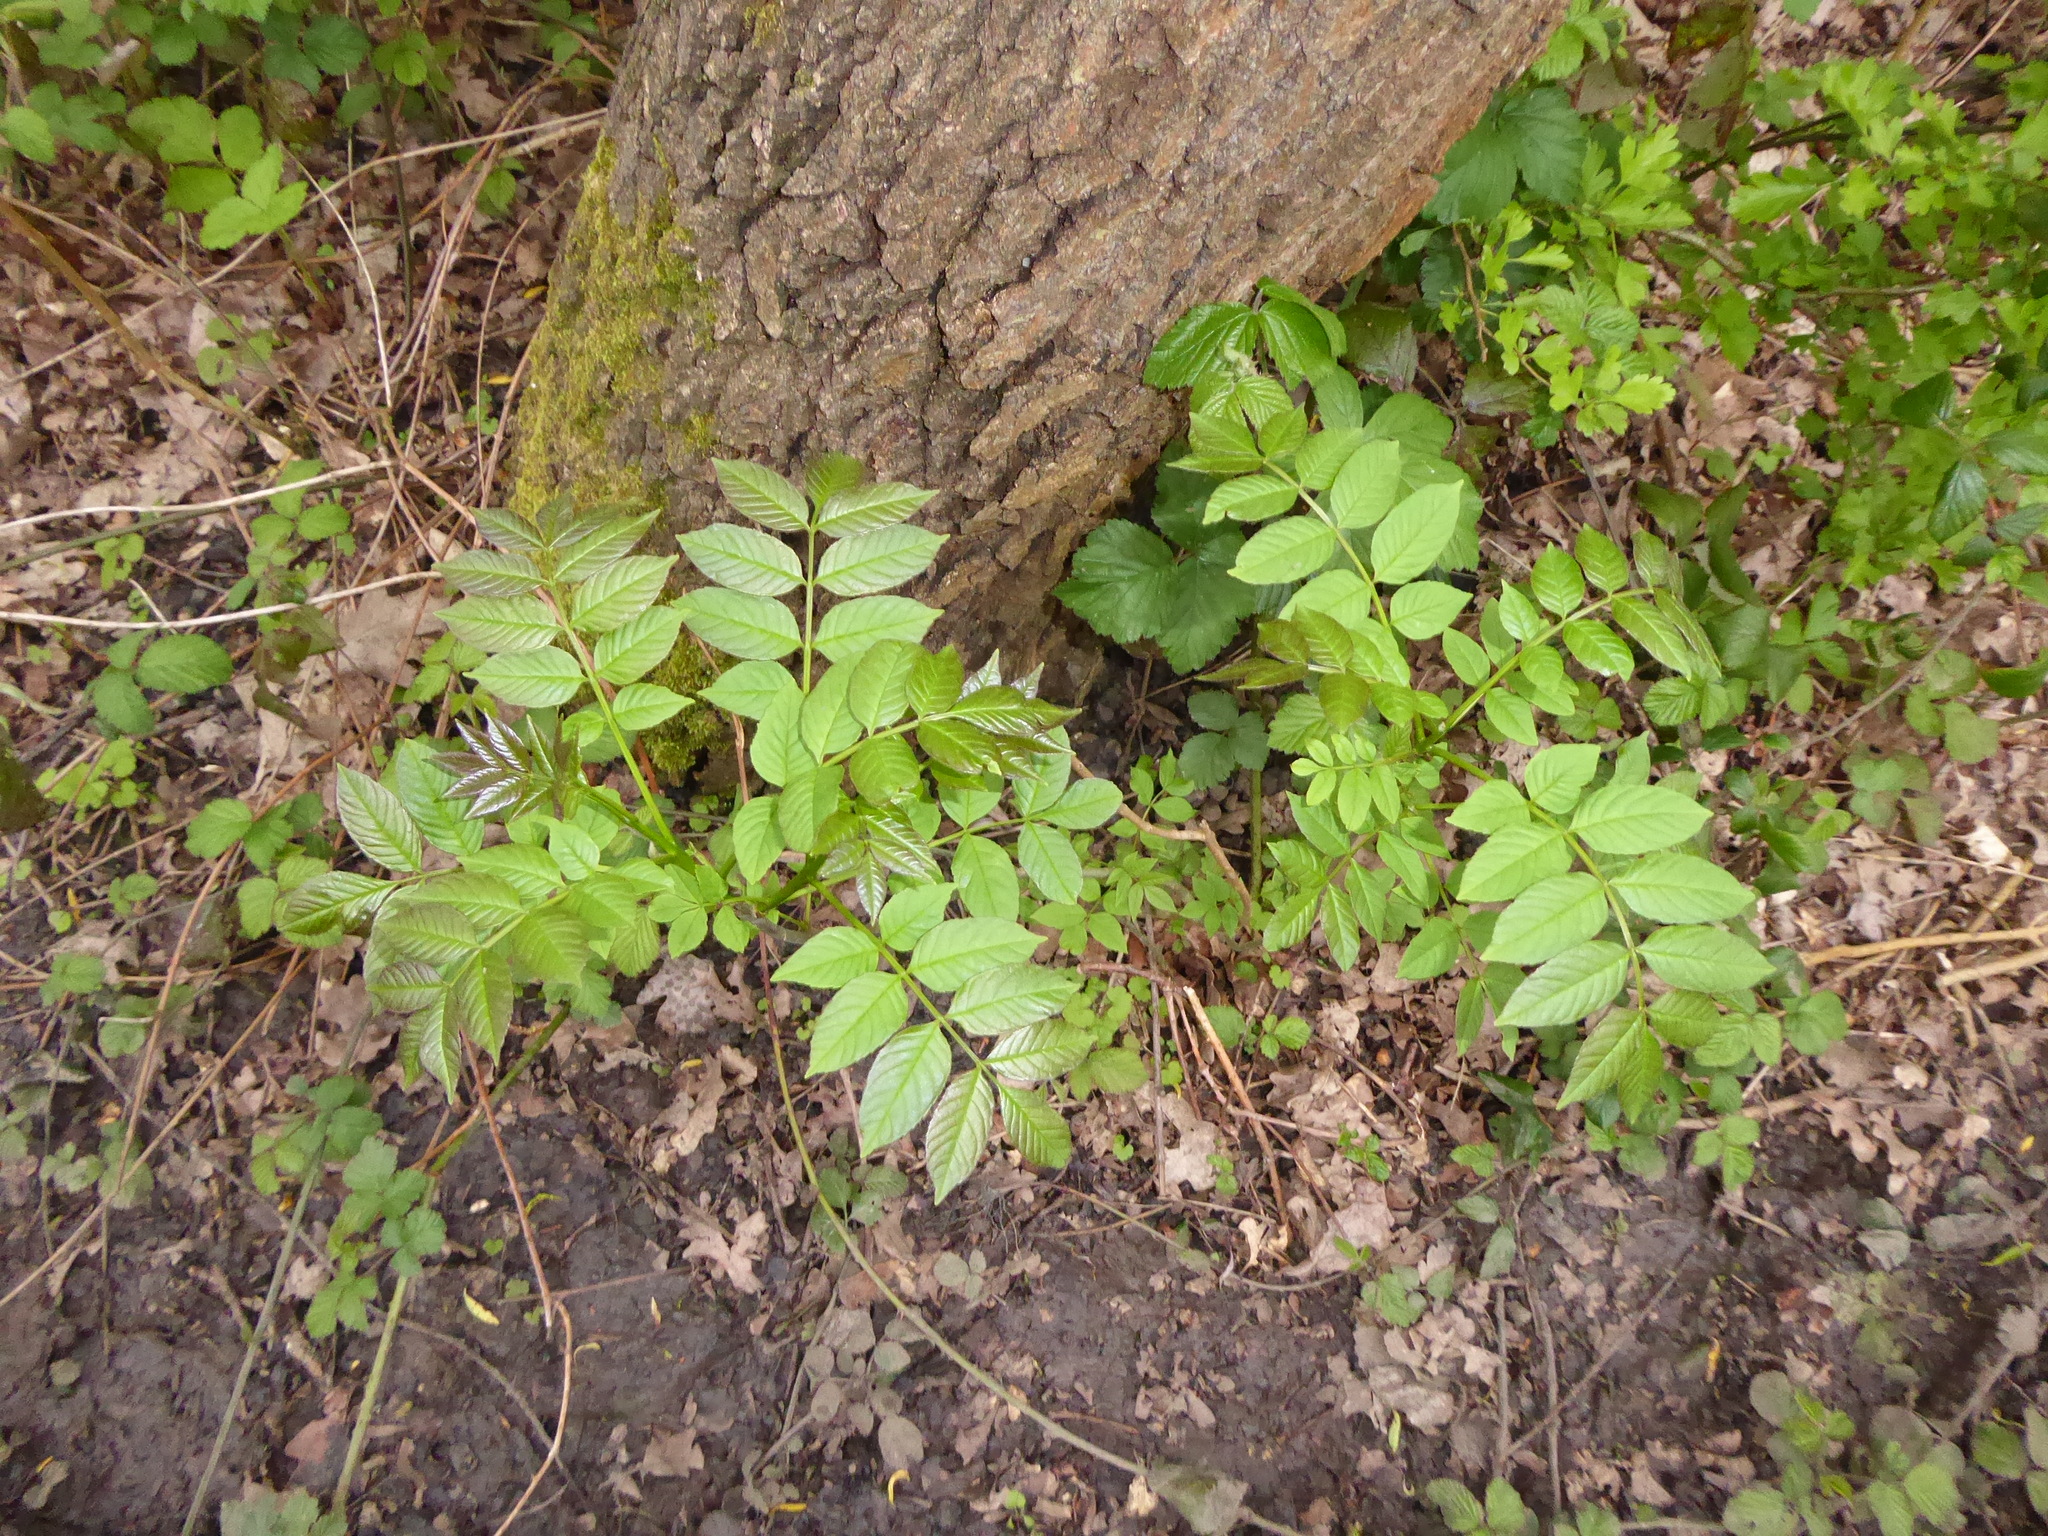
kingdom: Plantae
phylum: Tracheophyta
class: Magnoliopsida
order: Lamiales
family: Oleaceae
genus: Fraxinus
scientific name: Fraxinus excelsior
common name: European ash
